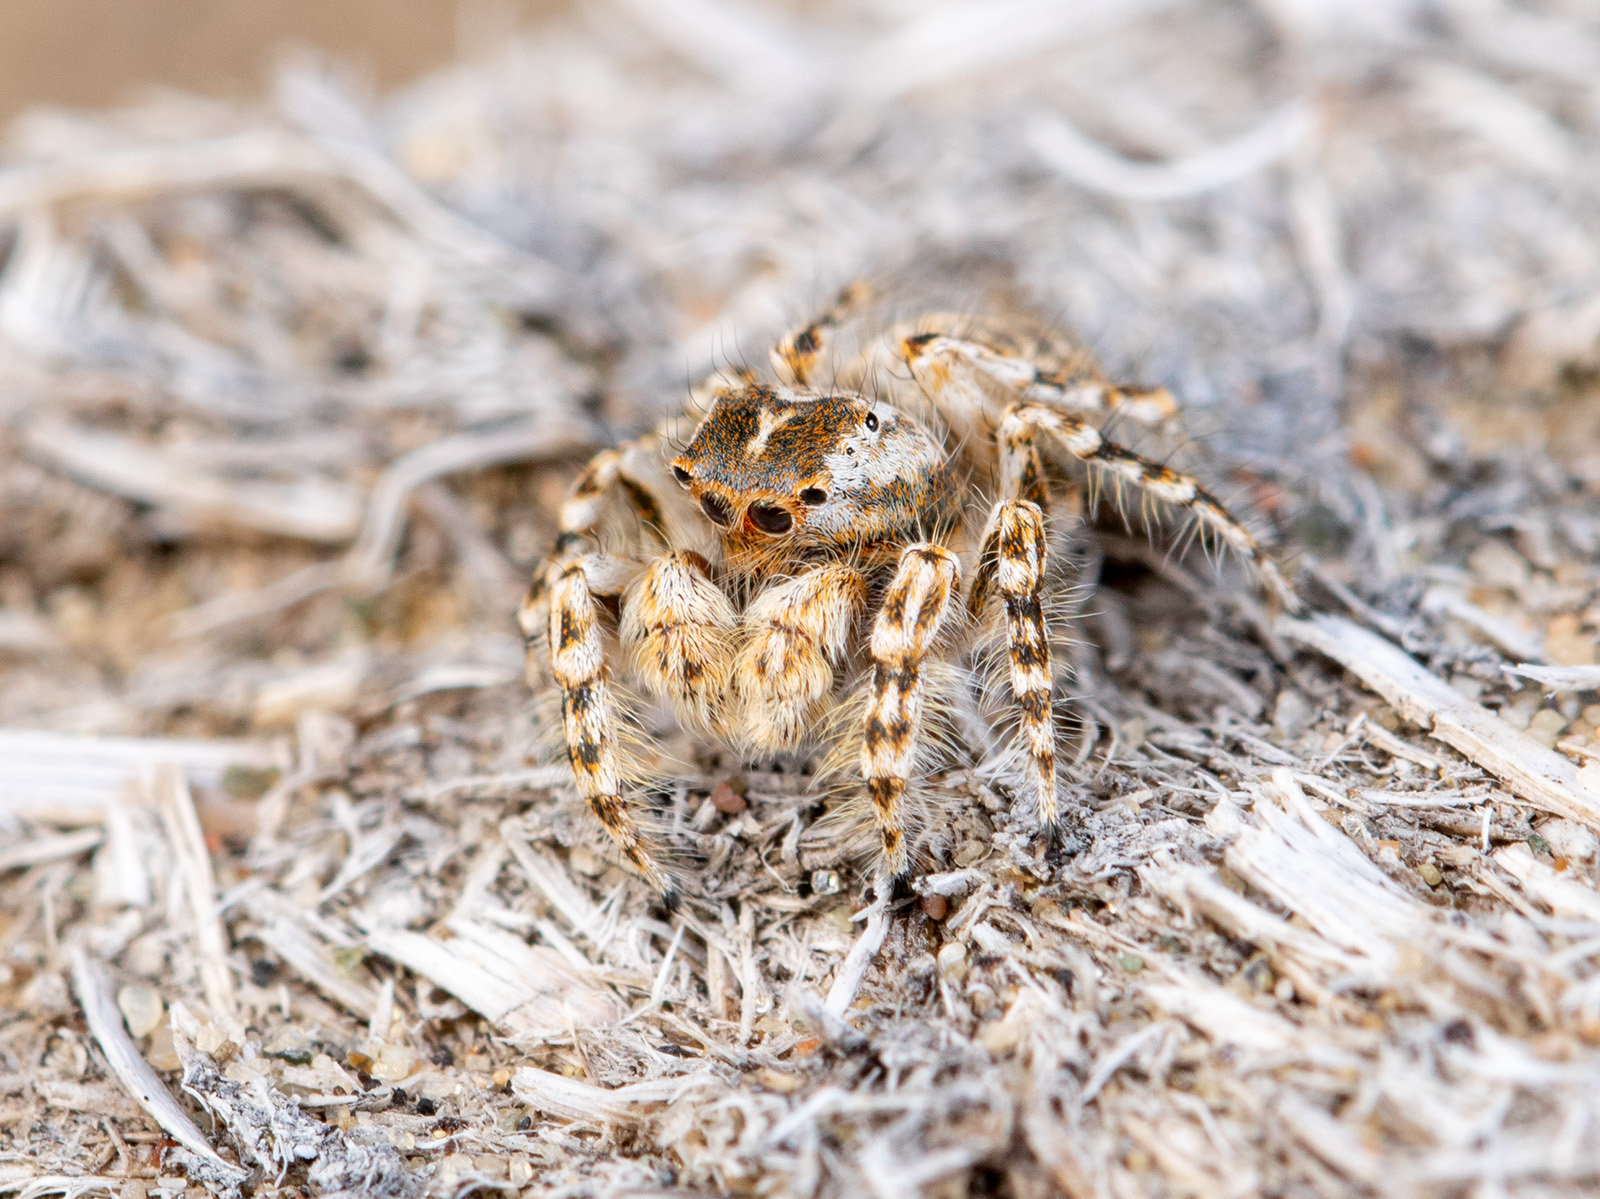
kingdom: Animalia
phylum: Arthropoda
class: Arachnida
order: Araneae
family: Salticidae
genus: Yllenus
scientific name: Yllenus turkestanicus
